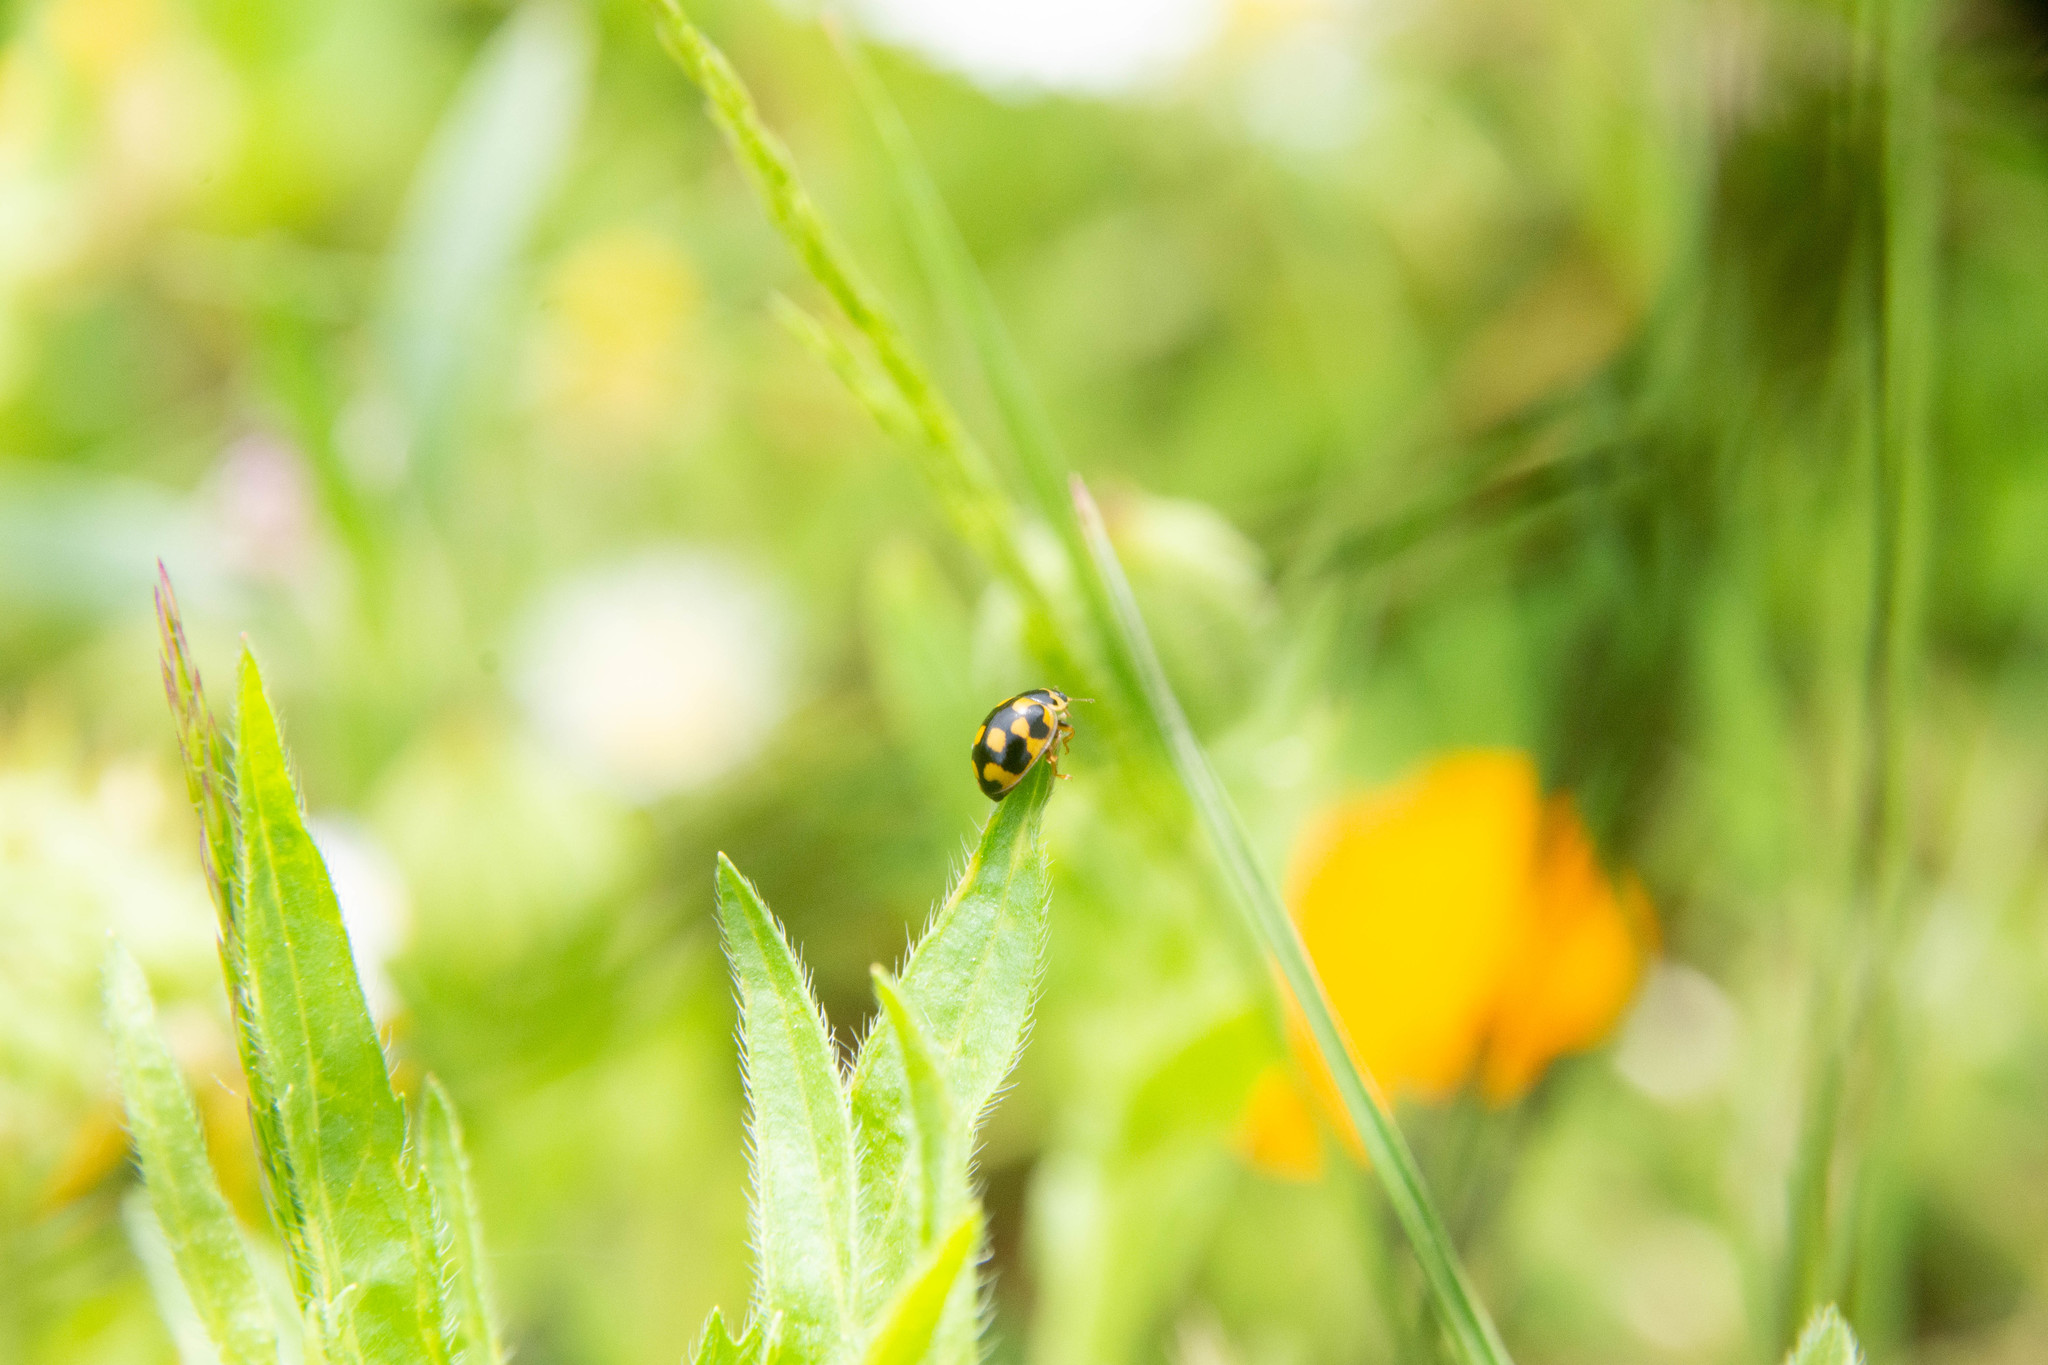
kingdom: Animalia
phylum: Arthropoda
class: Insecta
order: Coleoptera
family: Coccinellidae
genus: Propylaea
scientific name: Propylaea quatuordecimpunctata
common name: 14-spotted ladybird beetle
